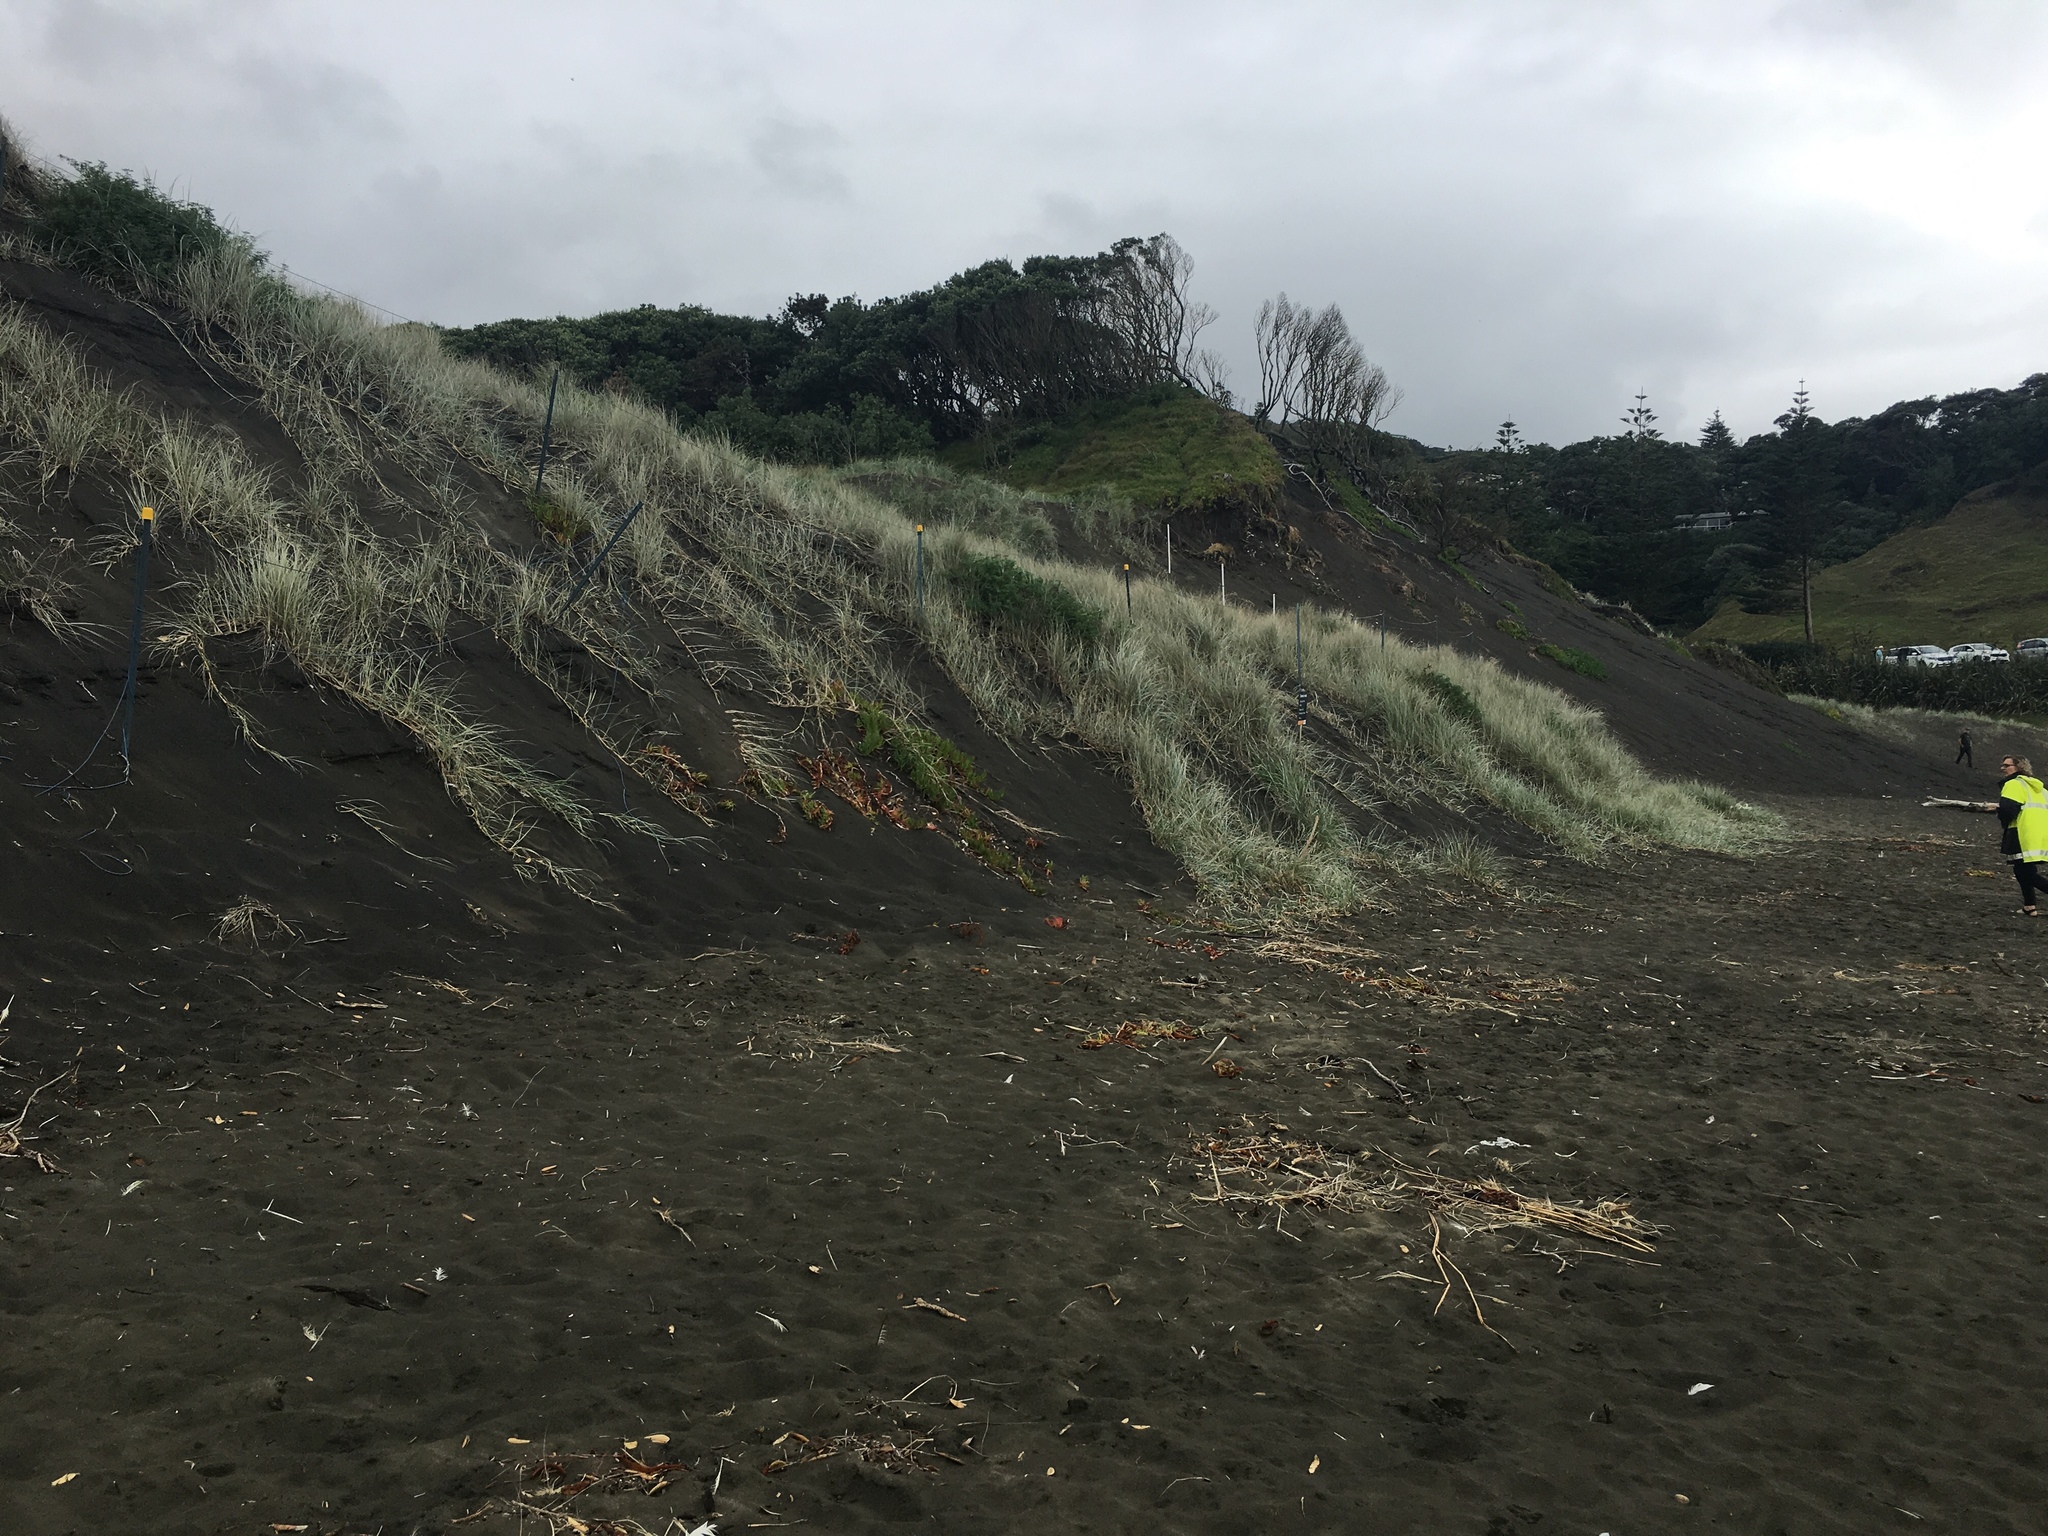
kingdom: Plantae
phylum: Tracheophyta
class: Liliopsida
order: Poales
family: Poaceae
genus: Spinifex
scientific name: Spinifex sericeus
